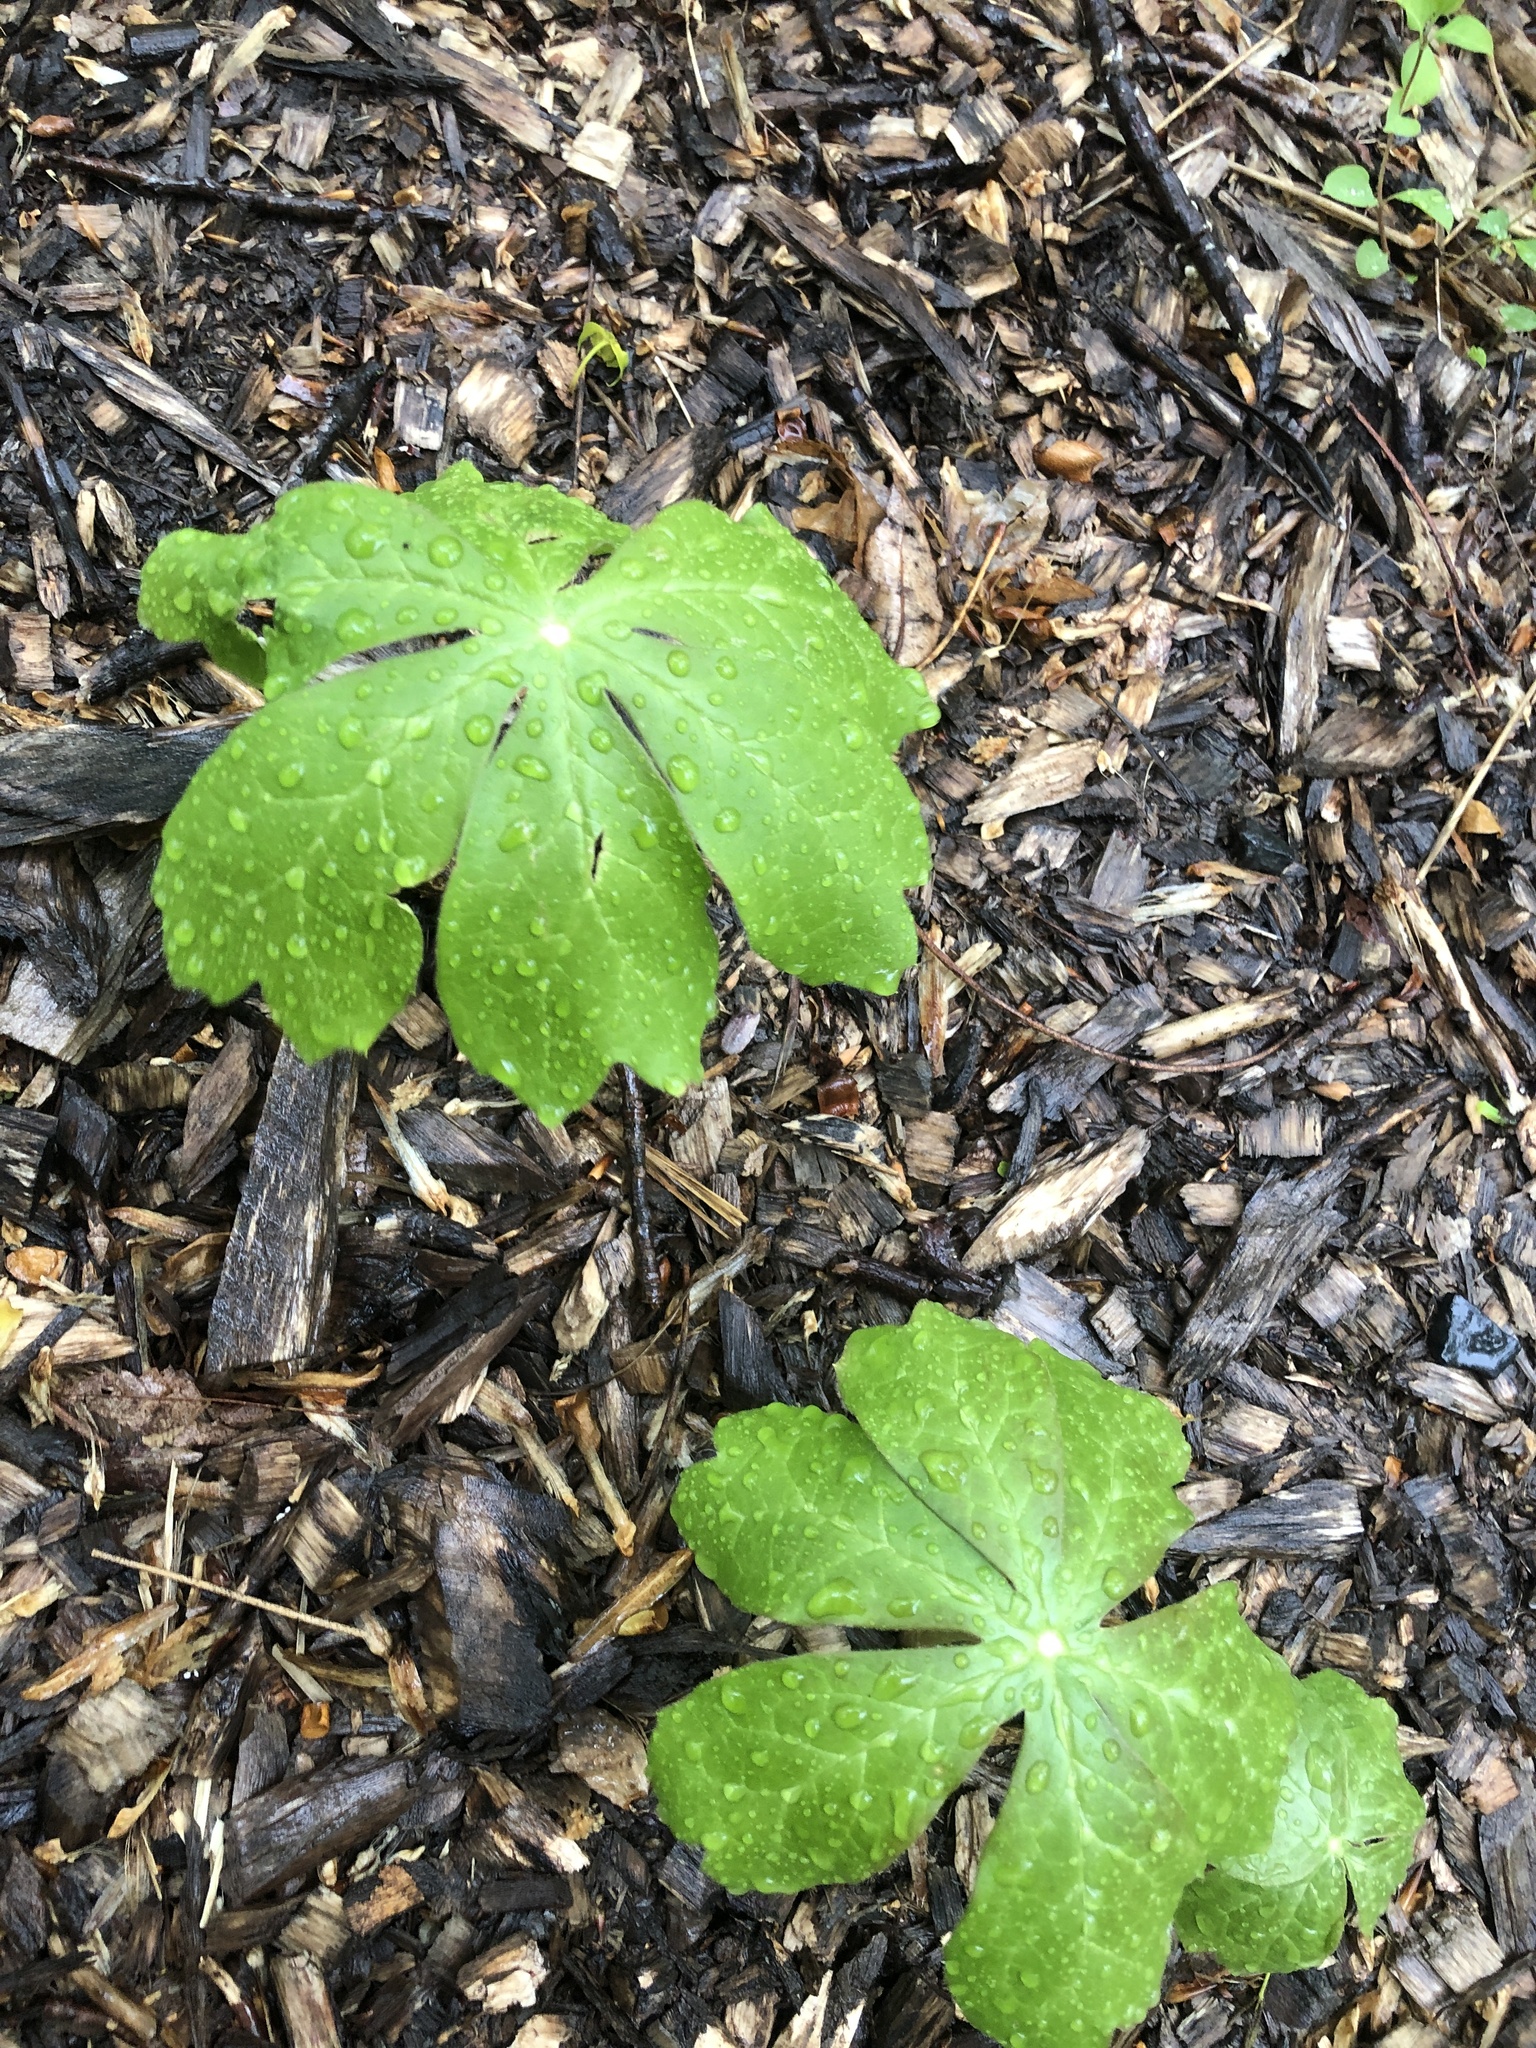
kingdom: Plantae
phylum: Tracheophyta
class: Magnoliopsida
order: Ranunculales
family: Berberidaceae
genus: Podophyllum
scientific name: Podophyllum peltatum
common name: Wild mandrake
